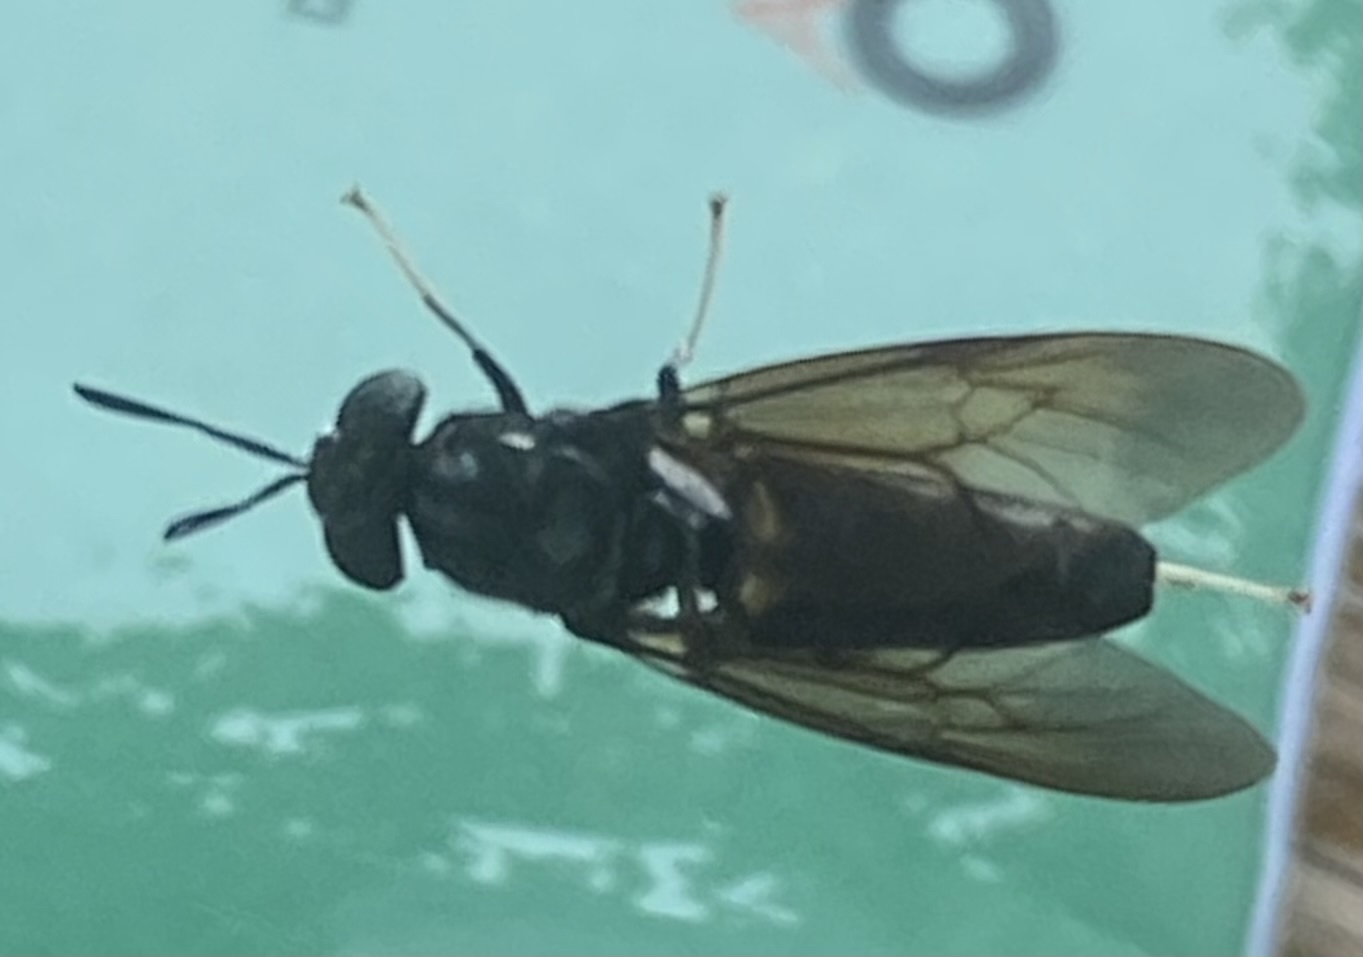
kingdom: Animalia
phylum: Arthropoda
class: Insecta
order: Diptera
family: Stratiomyidae
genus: Hermetia
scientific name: Hermetia illucens
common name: Black soldier fly
